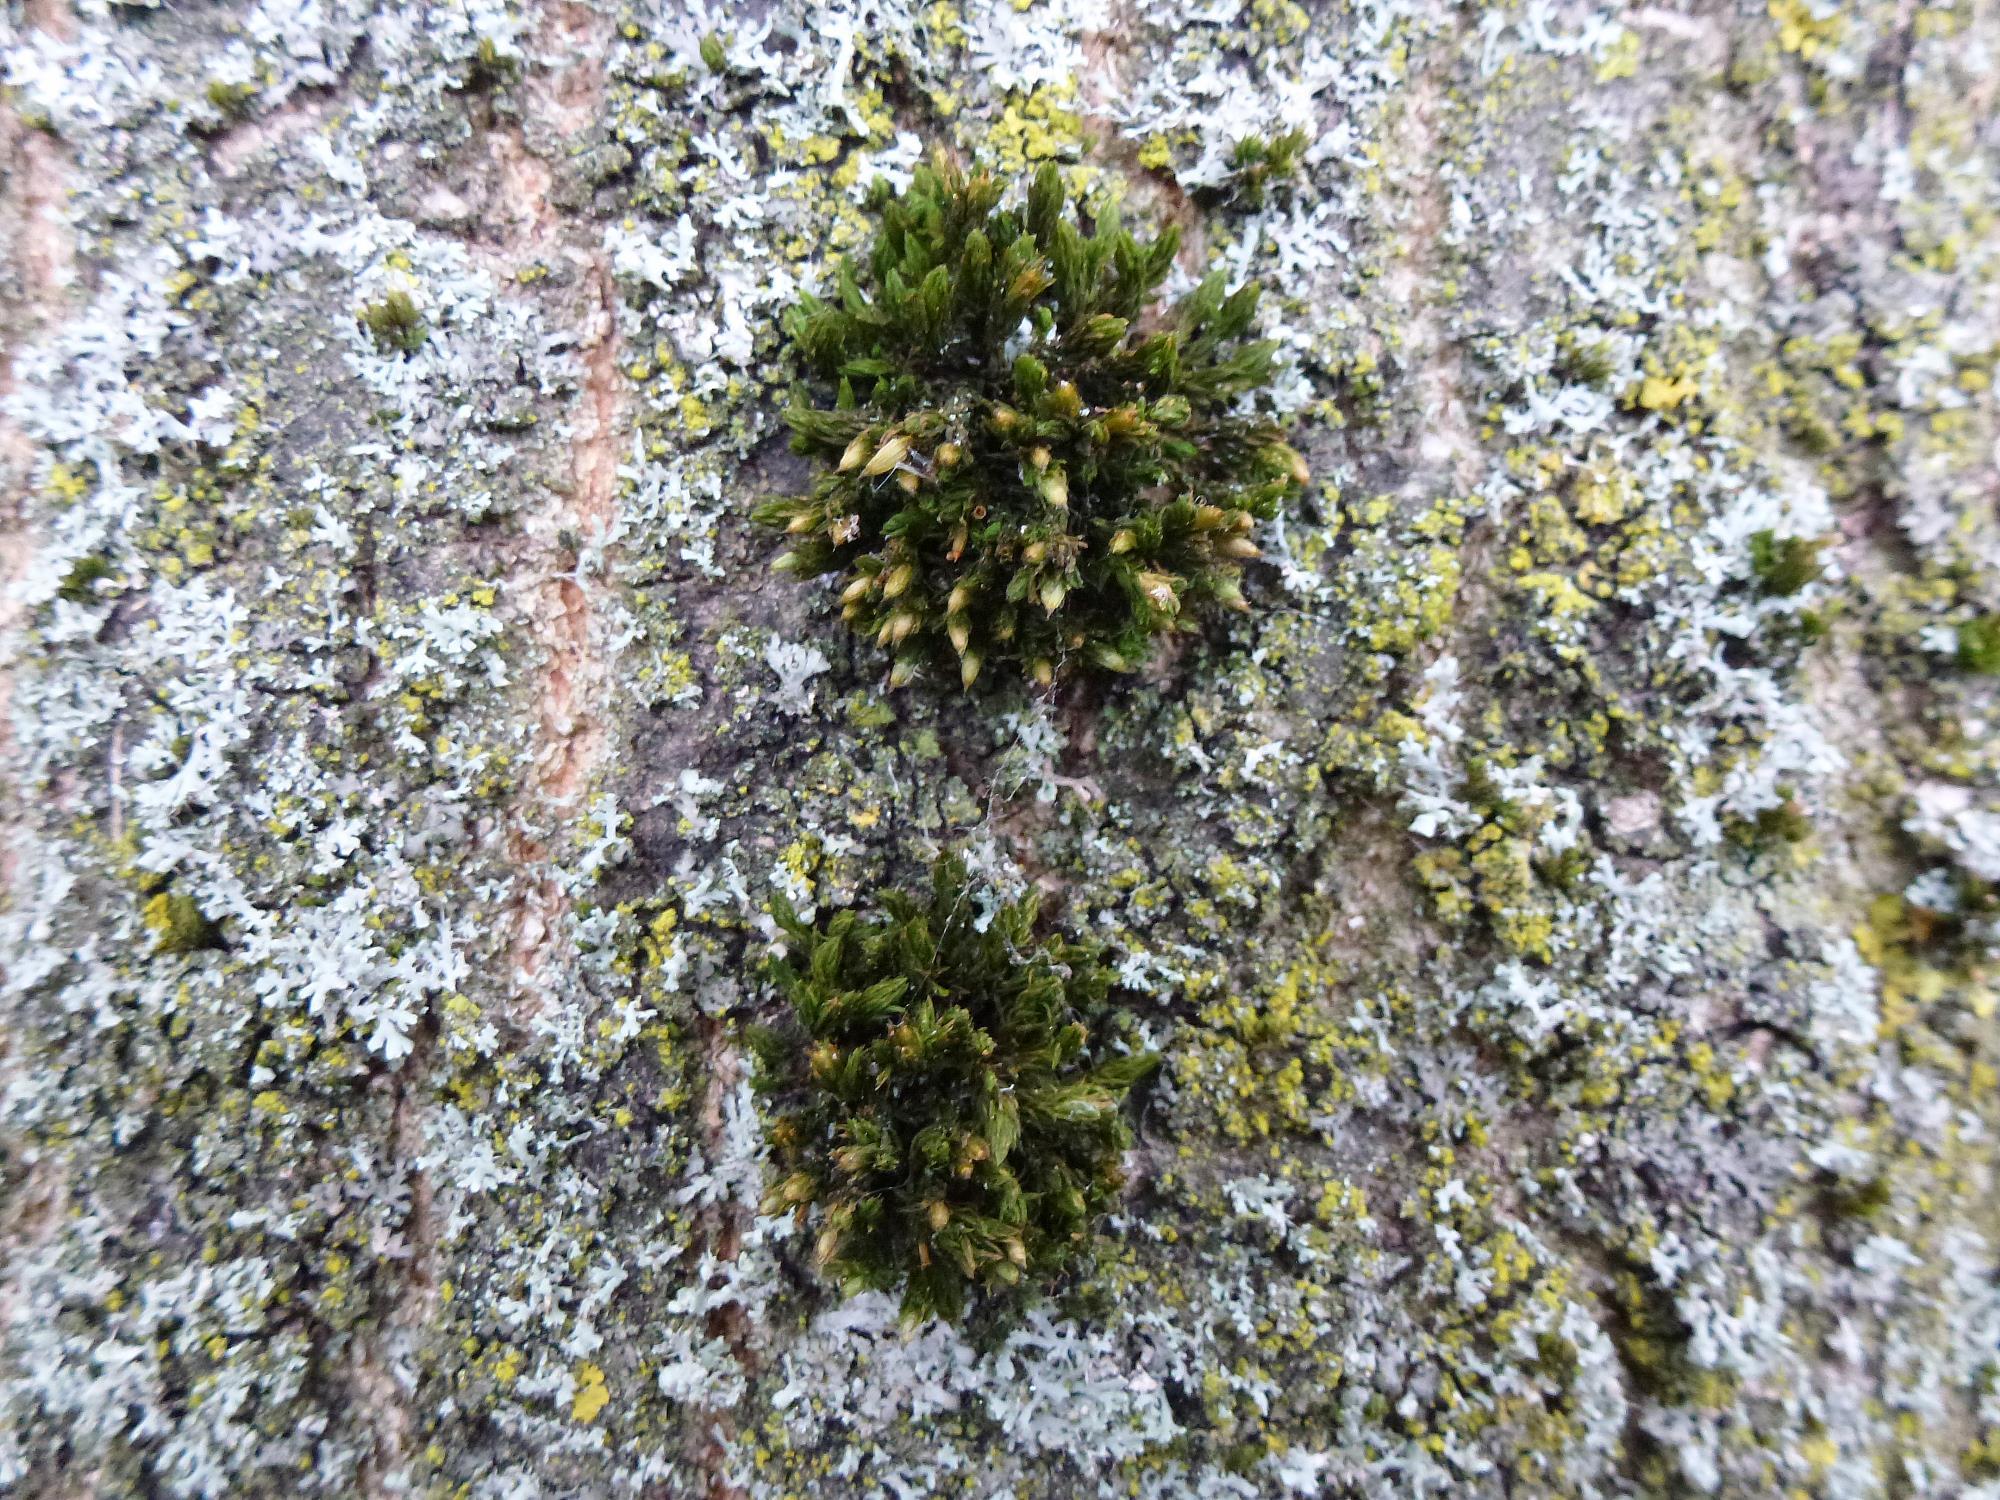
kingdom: Plantae
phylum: Bryophyta
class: Bryopsida
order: Orthotrichales
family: Orthotrichaceae
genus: Lewinskya
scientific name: Lewinskya affinis
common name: Wood bristle-moss
